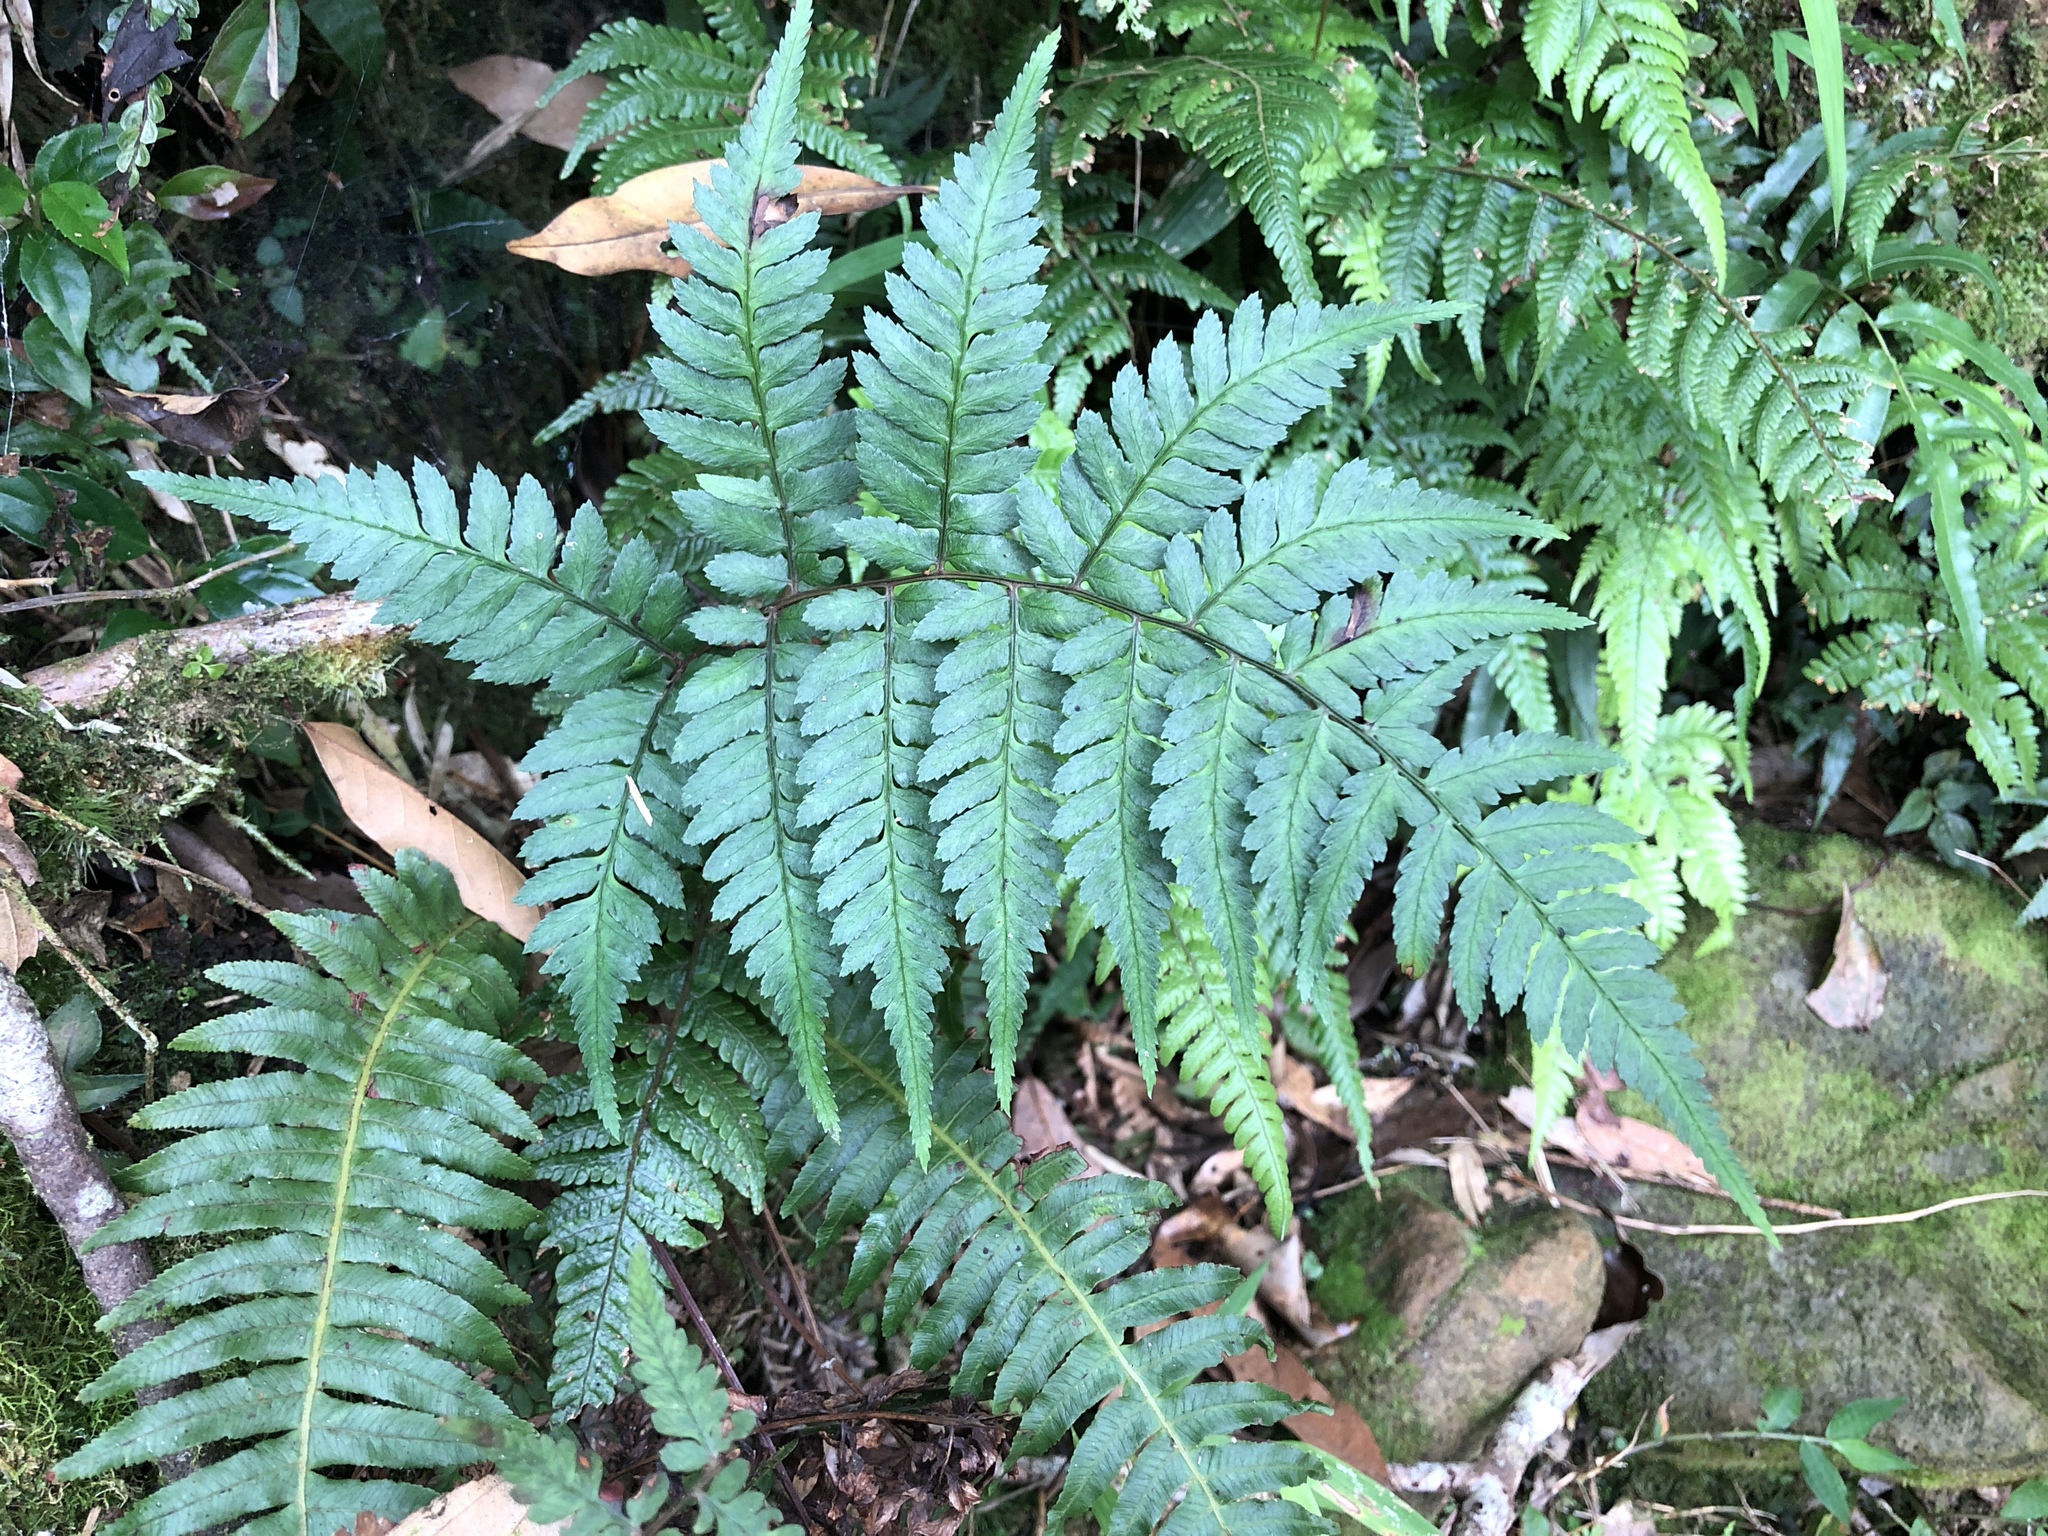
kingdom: Plantae
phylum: Tracheophyta
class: Polypodiopsida
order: Polypodiales
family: Athyriaceae
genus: Athyrium
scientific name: Athyrium arisanense
